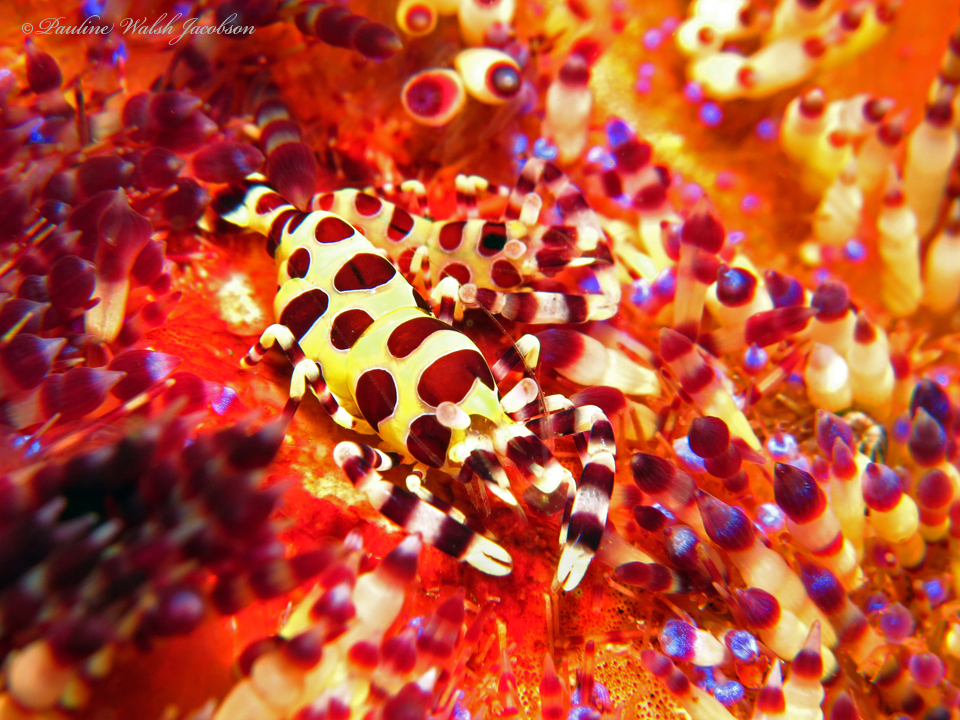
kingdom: Animalia
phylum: Arthropoda
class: Malacostraca
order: Decapoda
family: Palaemonidae
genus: Periclimenes
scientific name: Periclimenes colemani
